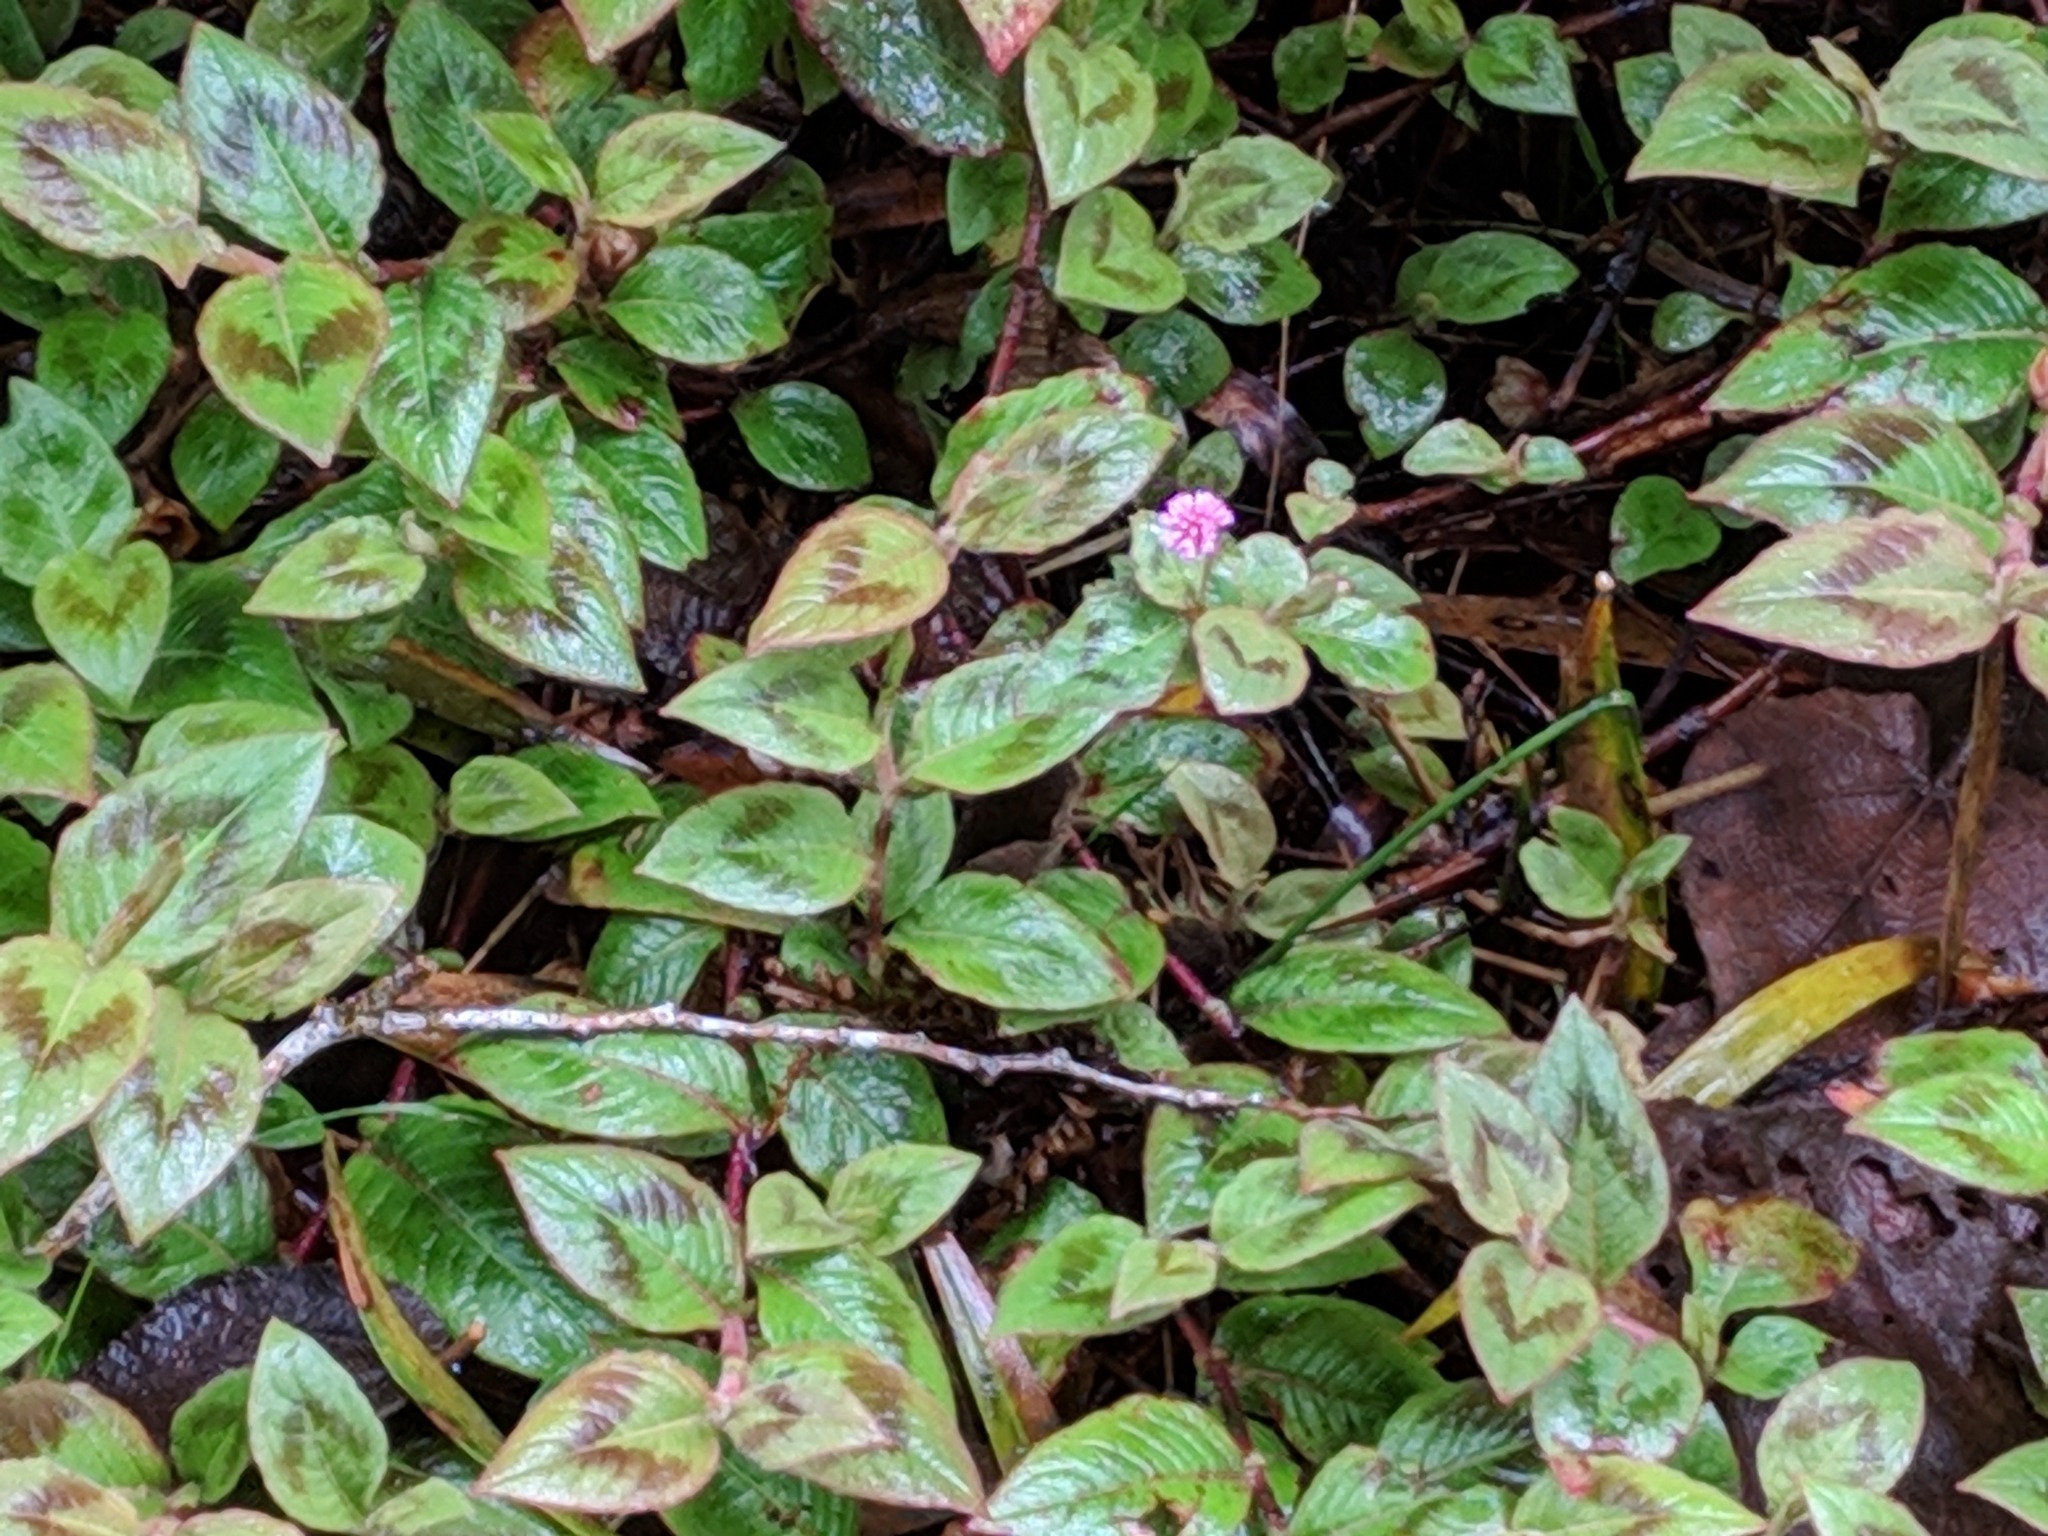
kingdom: Plantae
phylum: Tracheophyta
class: Magnoliopsida
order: Caryophyllales
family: Polygonaceae
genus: Persicaria
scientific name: Persicaria capitata
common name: Pinkhead smartweed
